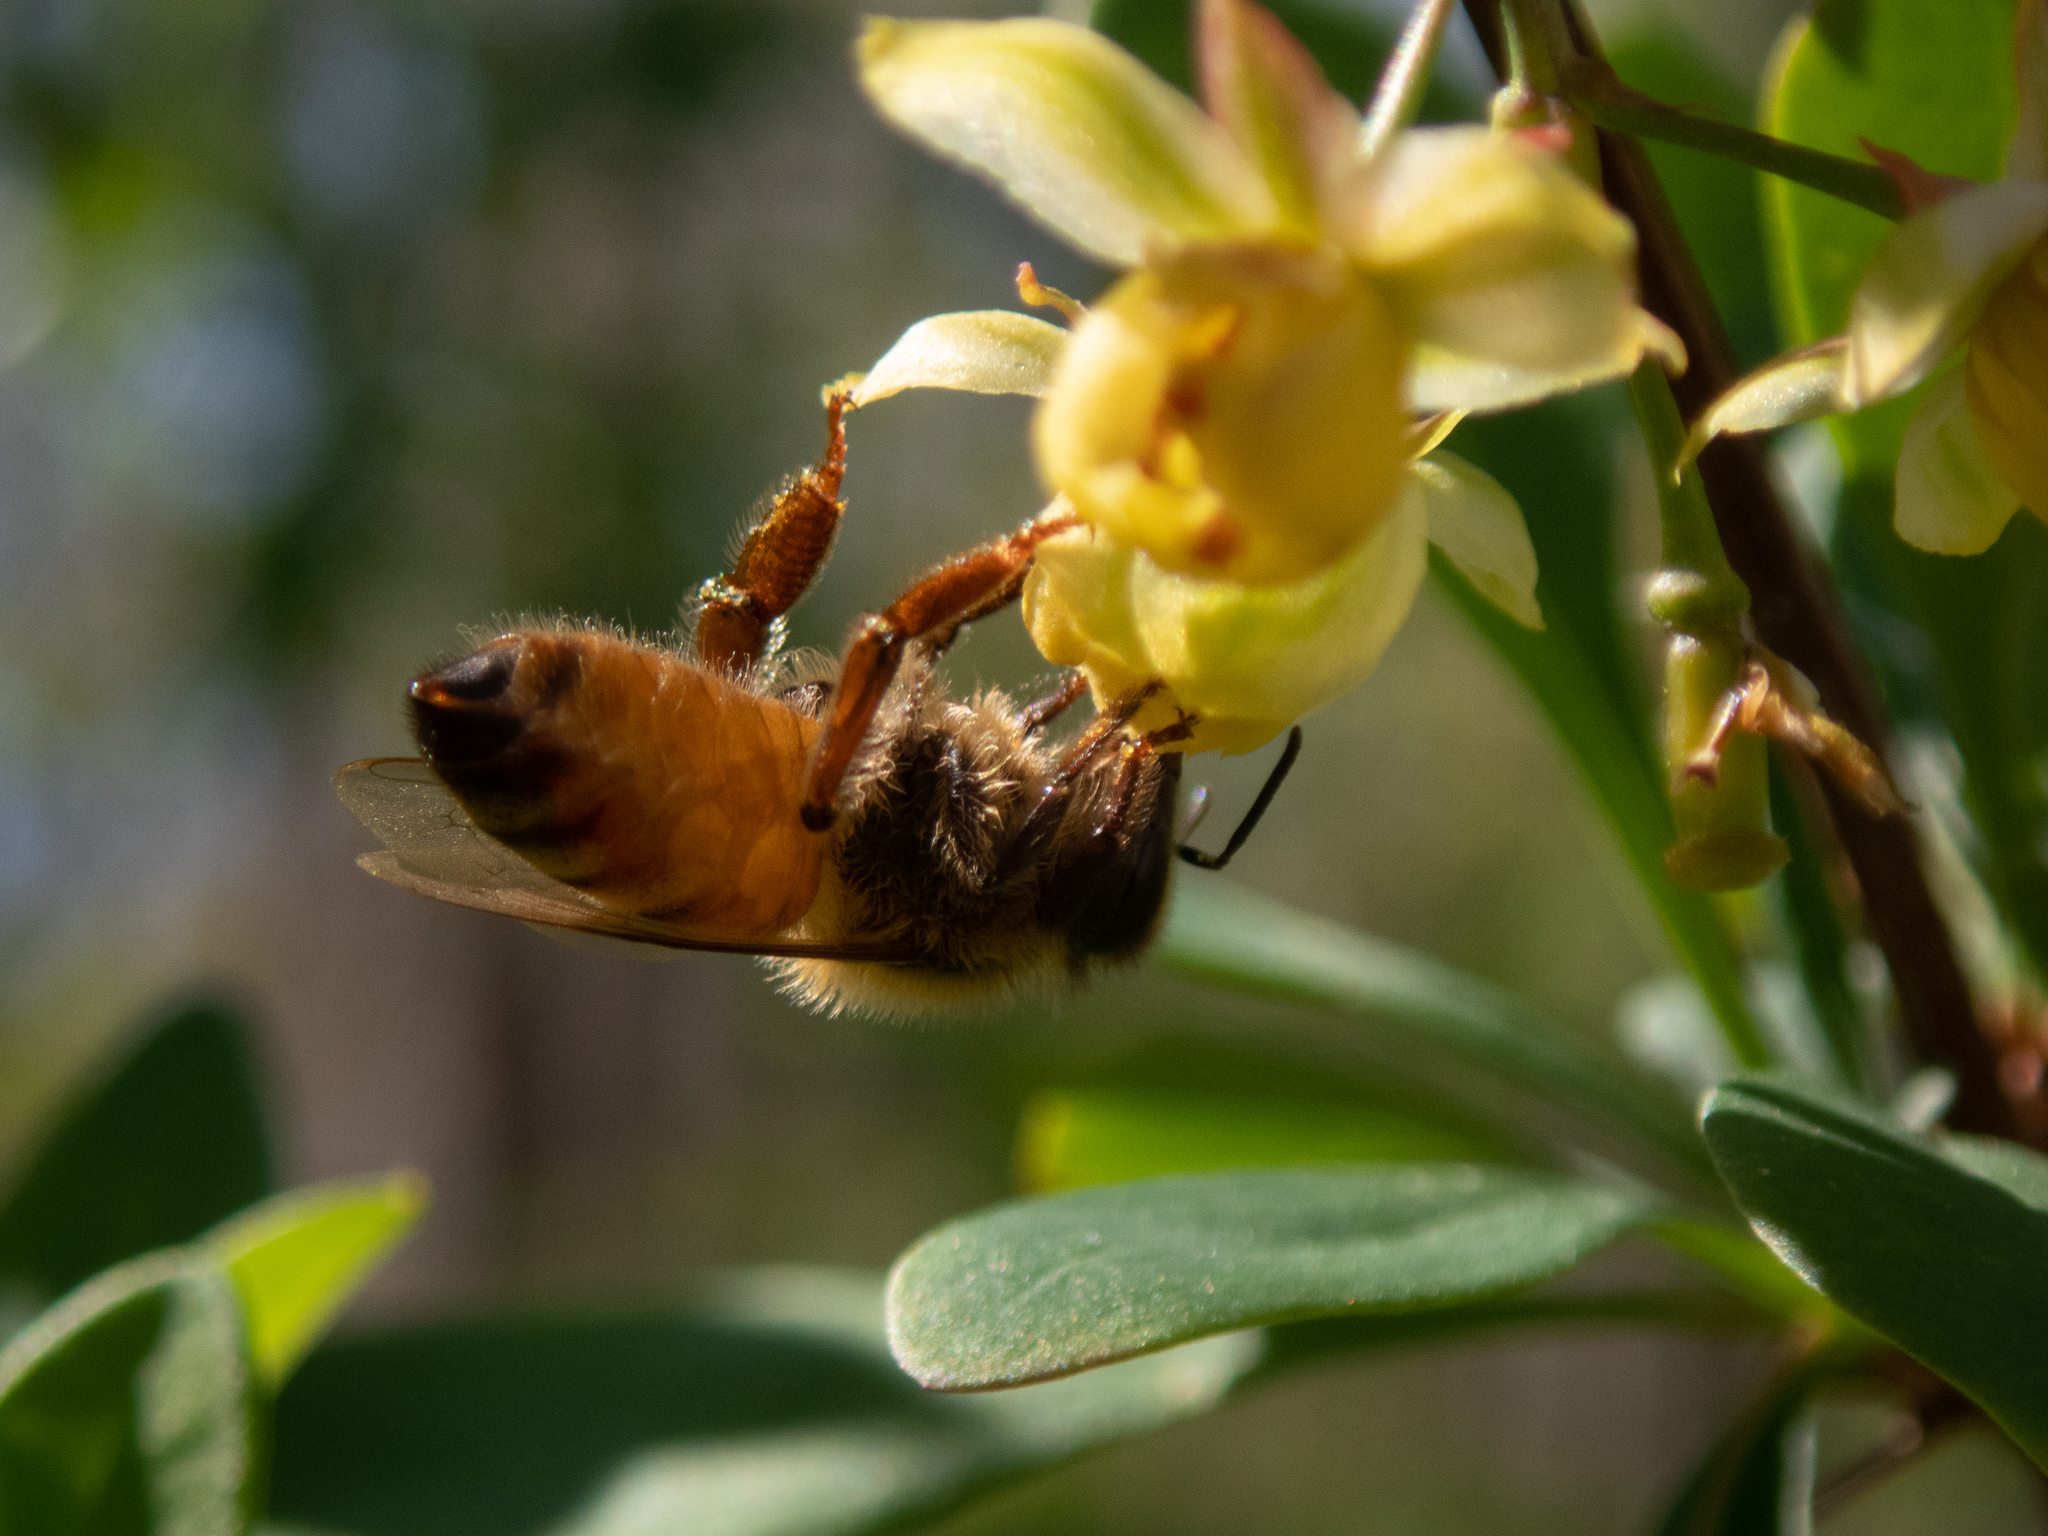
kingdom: Animalia
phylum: Arthropoda
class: Insecta
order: Hymenoptera
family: Apidae
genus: Apis
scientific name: Apis mellifera
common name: Honey bee
